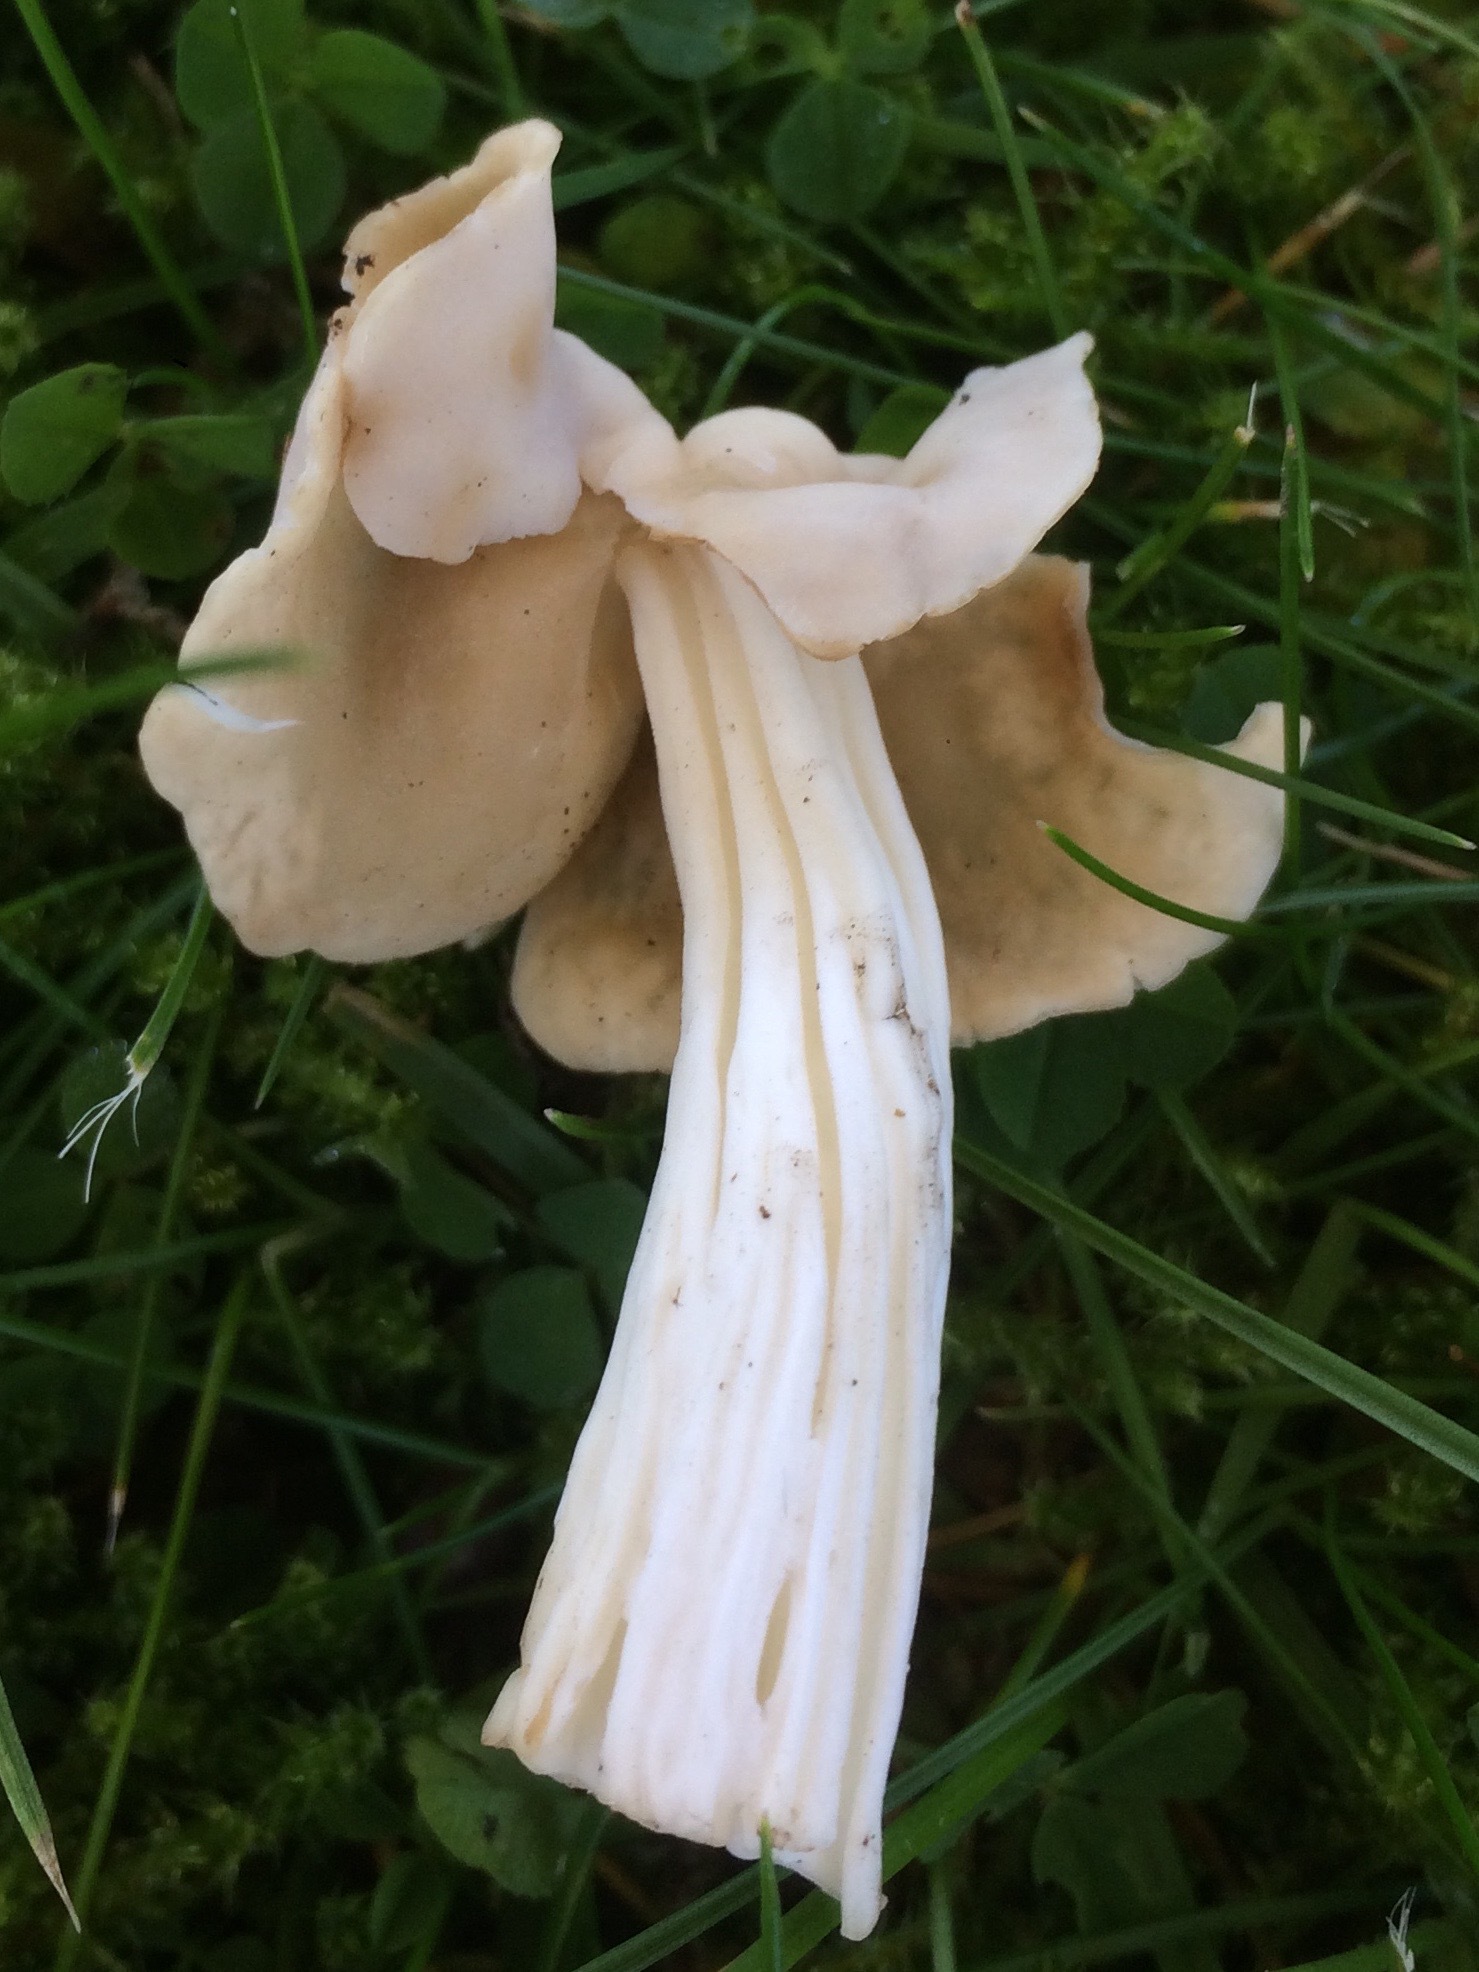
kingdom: Fungi
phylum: Ascomycota
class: Pezizomycetes
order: Pezizales
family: Helvellaceae
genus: Helvella
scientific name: Helvella crispa
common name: White saddle
